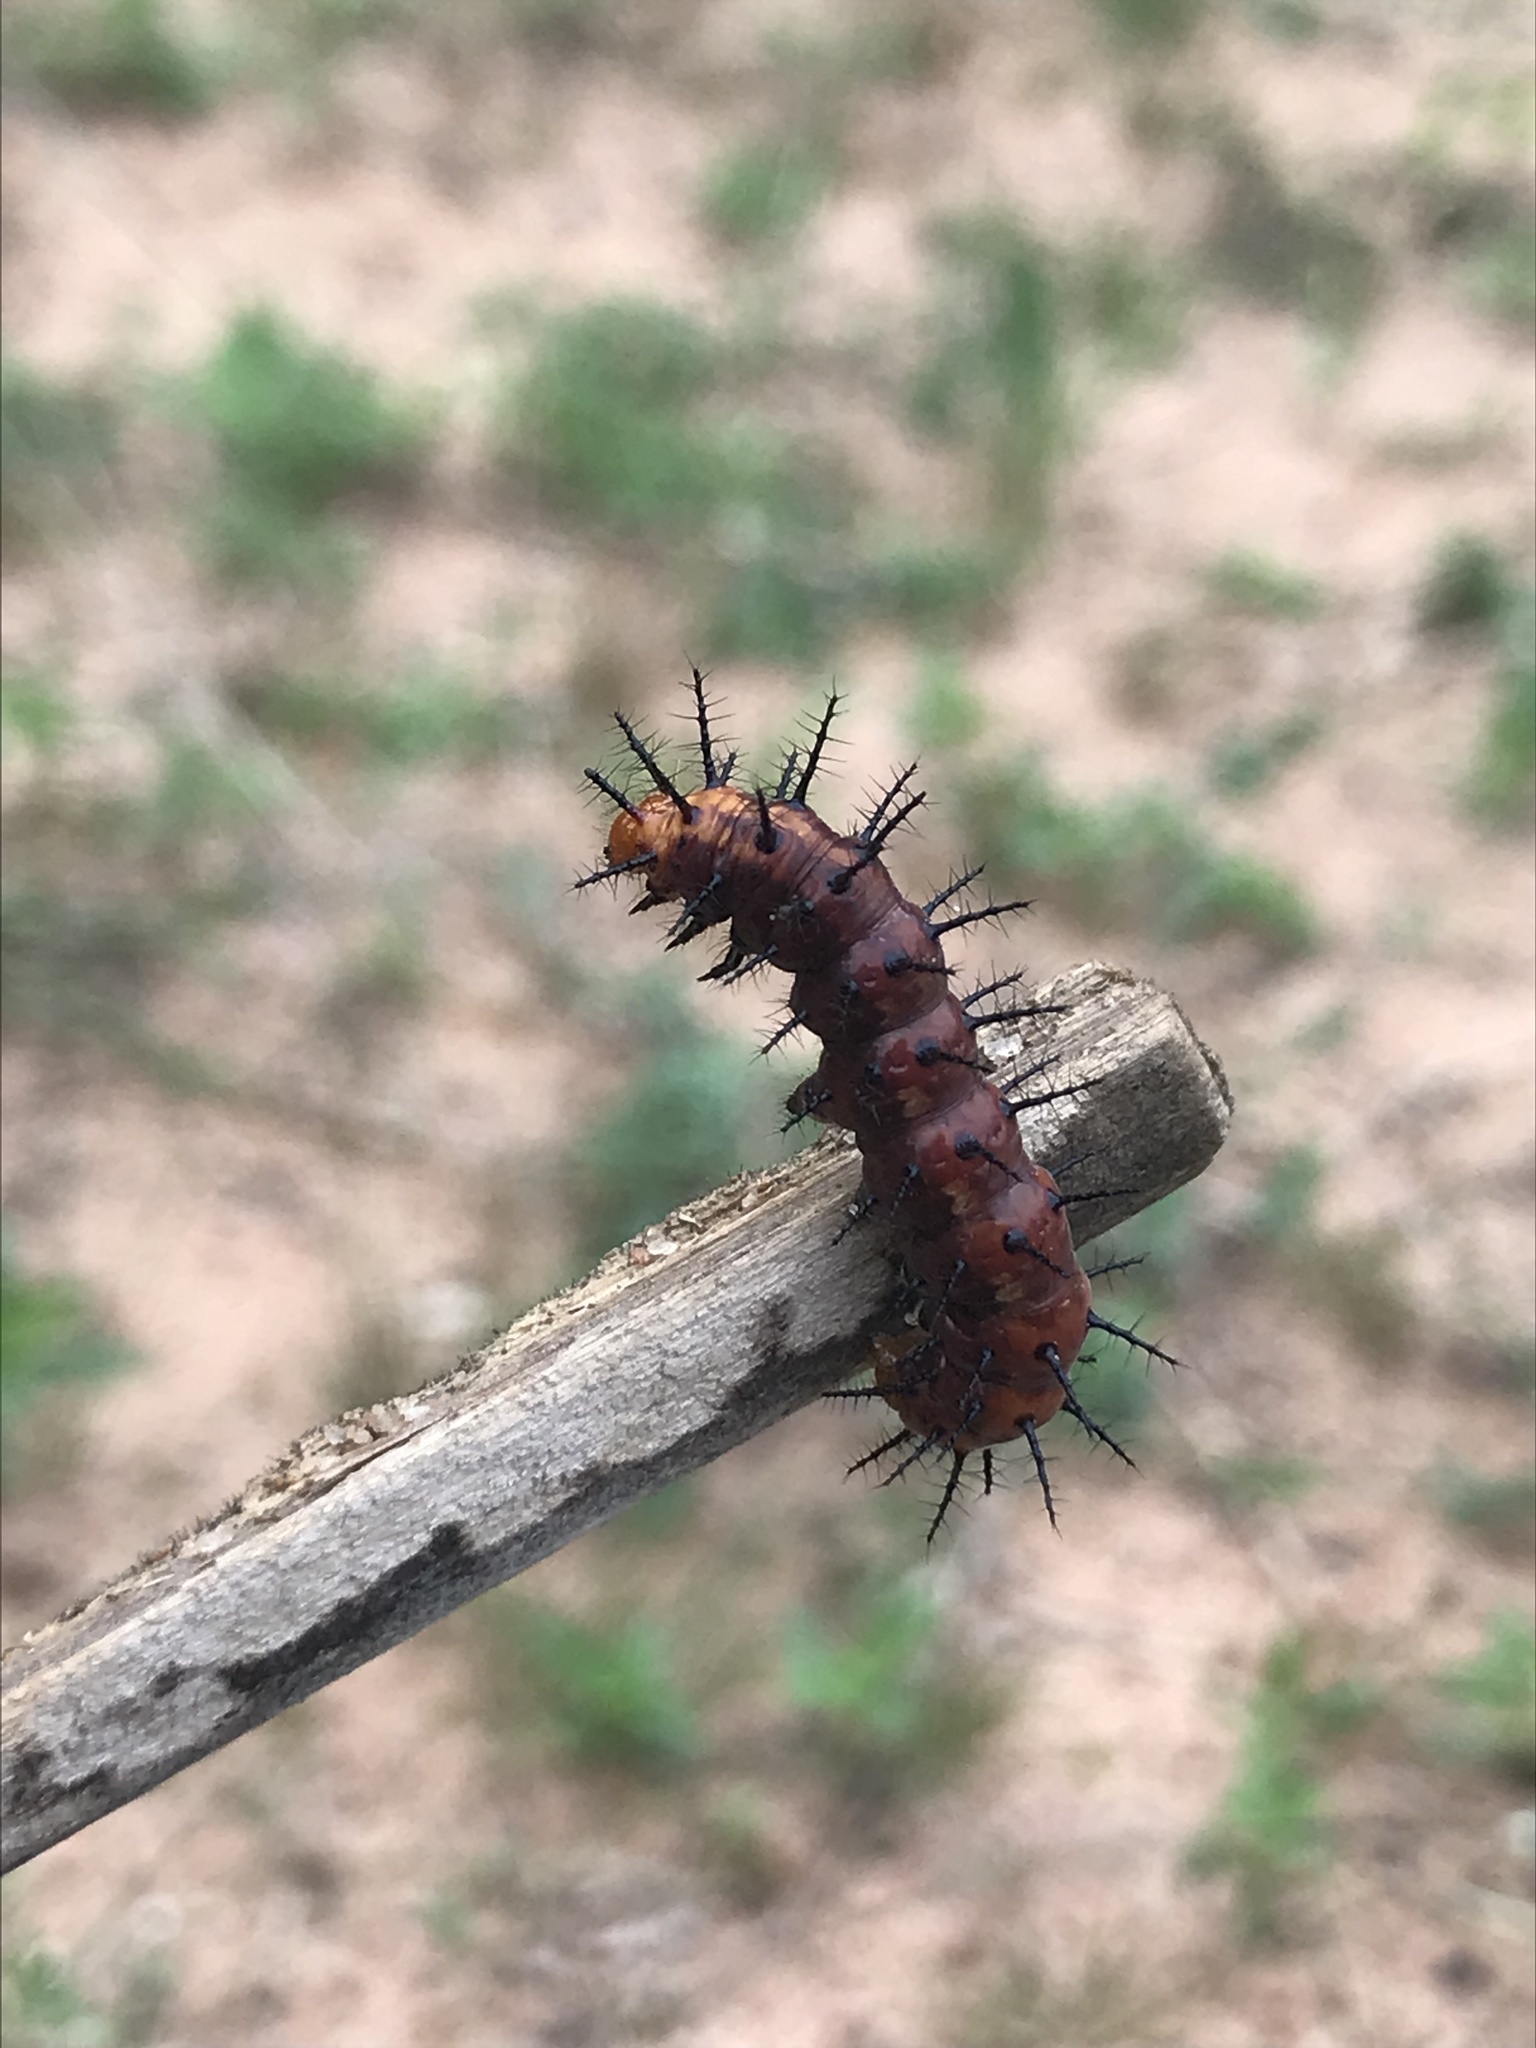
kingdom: Animalia
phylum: Arthropoda
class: Insecta
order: Lepidoptera
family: Nymphalidae
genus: Acraea
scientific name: Acraea terpsicore
